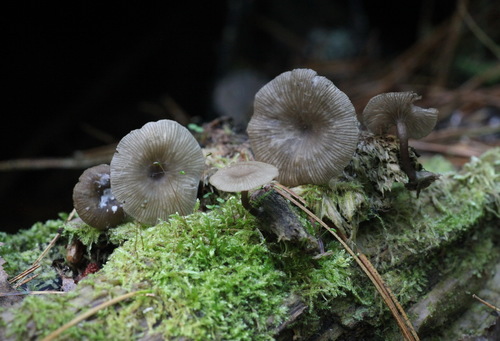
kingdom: Fungi
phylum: Basidiomycota
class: Agaricomycetes
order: Agaricales
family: Hygrophoraceae
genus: Arrhenia
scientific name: Arrhenia epichysium
